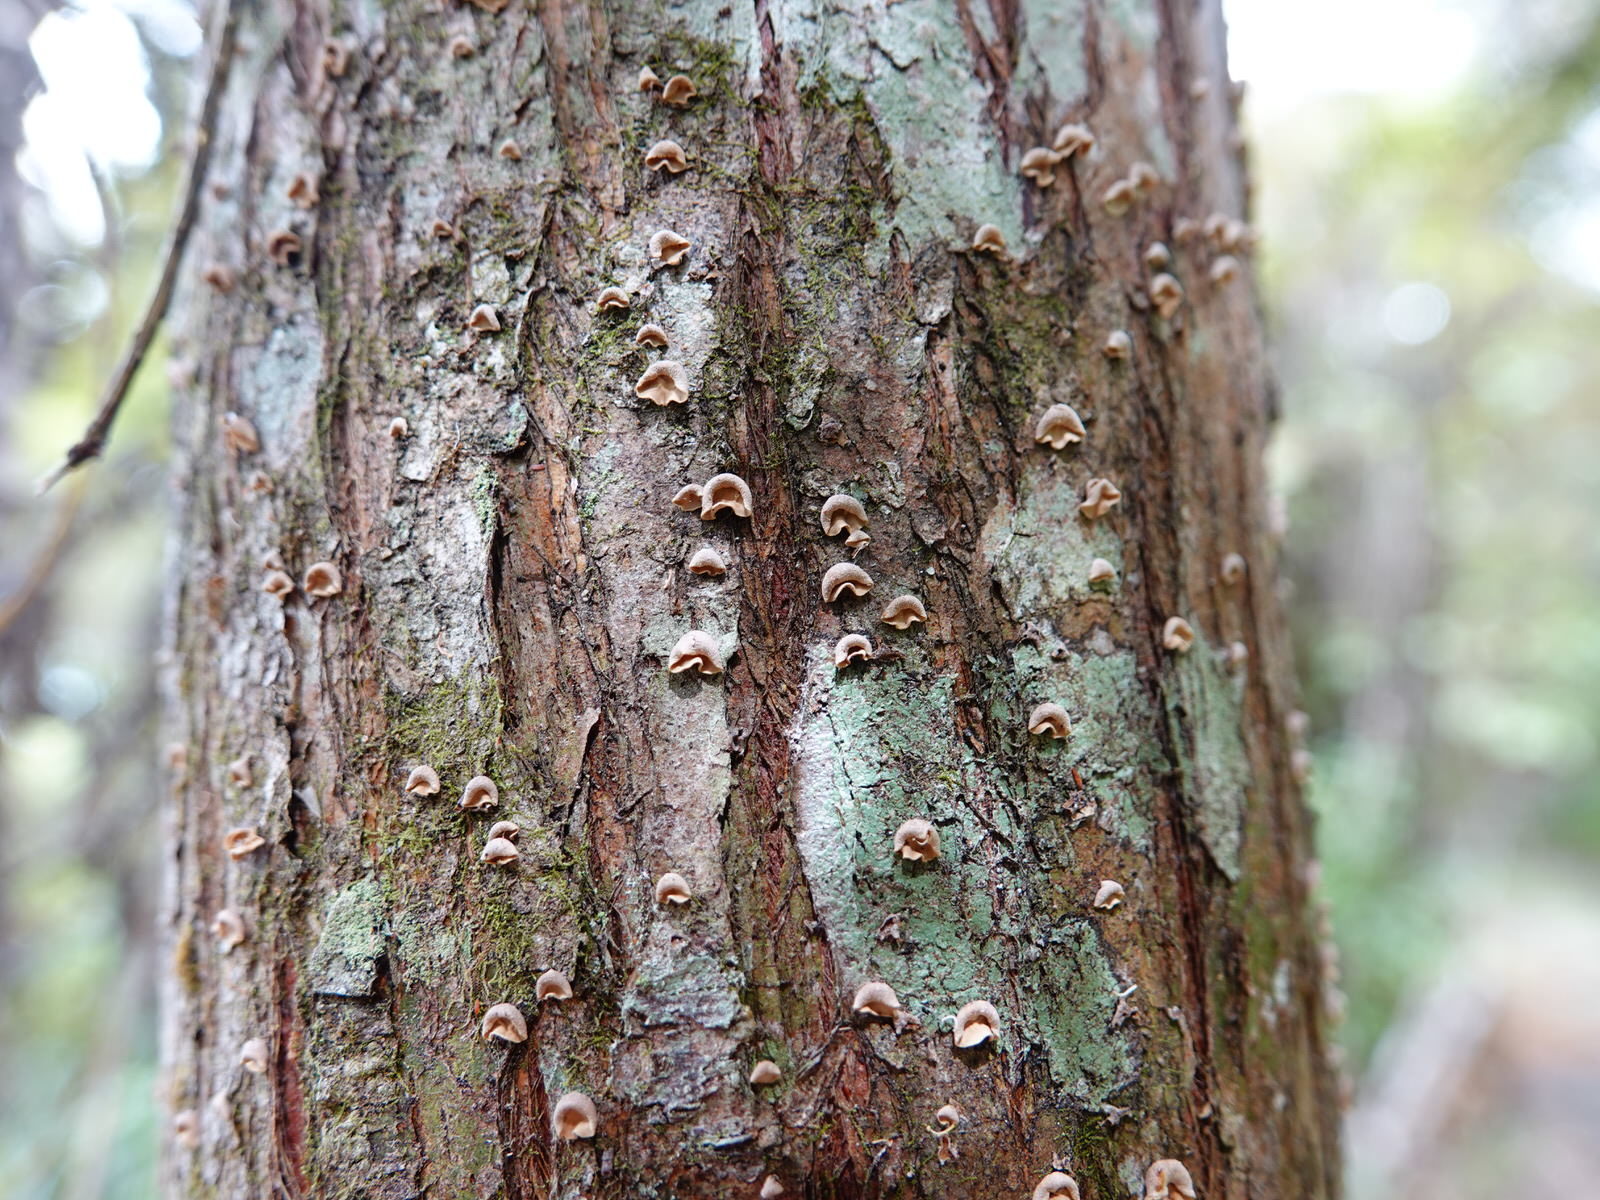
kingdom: Fungi
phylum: Basidiomycota
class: Agaricomycetes
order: Agaricales
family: Marasmiaceae
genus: Calyptella
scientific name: Calyptella totara
